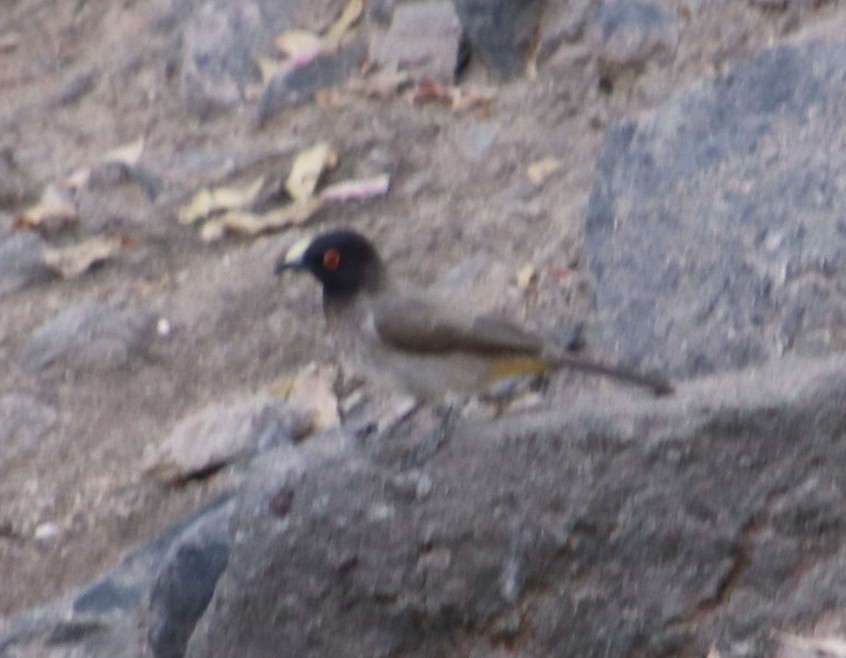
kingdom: Animalia
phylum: Chordata
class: Aves
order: Passeriformes
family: Pycnonotidae
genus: Pycnonotus
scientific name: Pycnonotus nigricans
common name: African red-eyed bulbul
